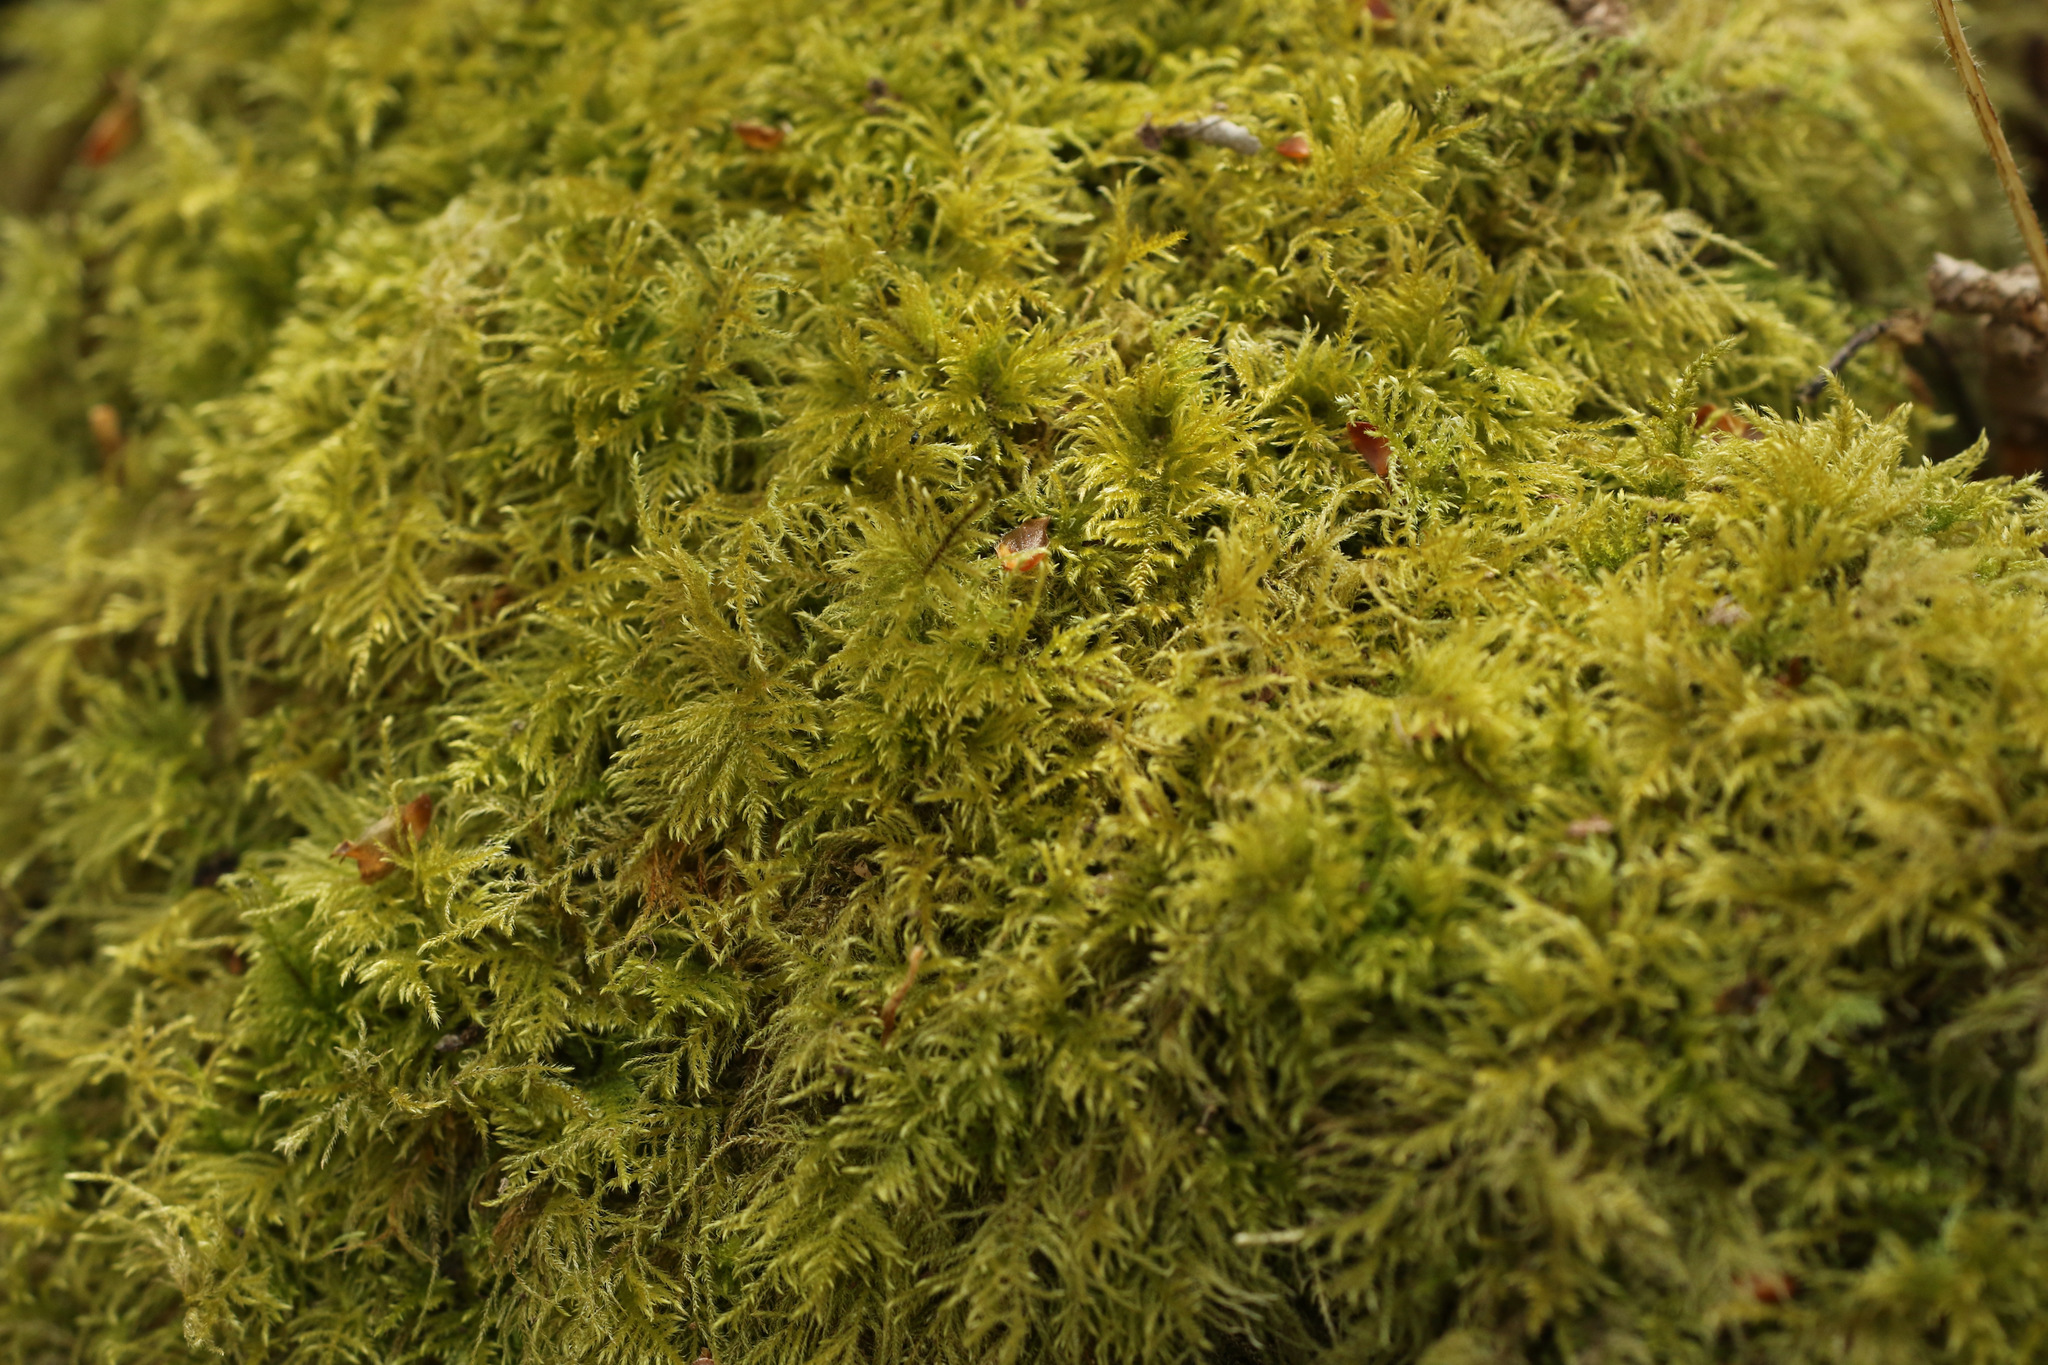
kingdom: Plantae
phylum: Bryophyta
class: Bryopsida
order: Hypnales
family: Brachytheciaceae
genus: Kindbergia
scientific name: Kindbergia praelonga
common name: Slender beaked moss
